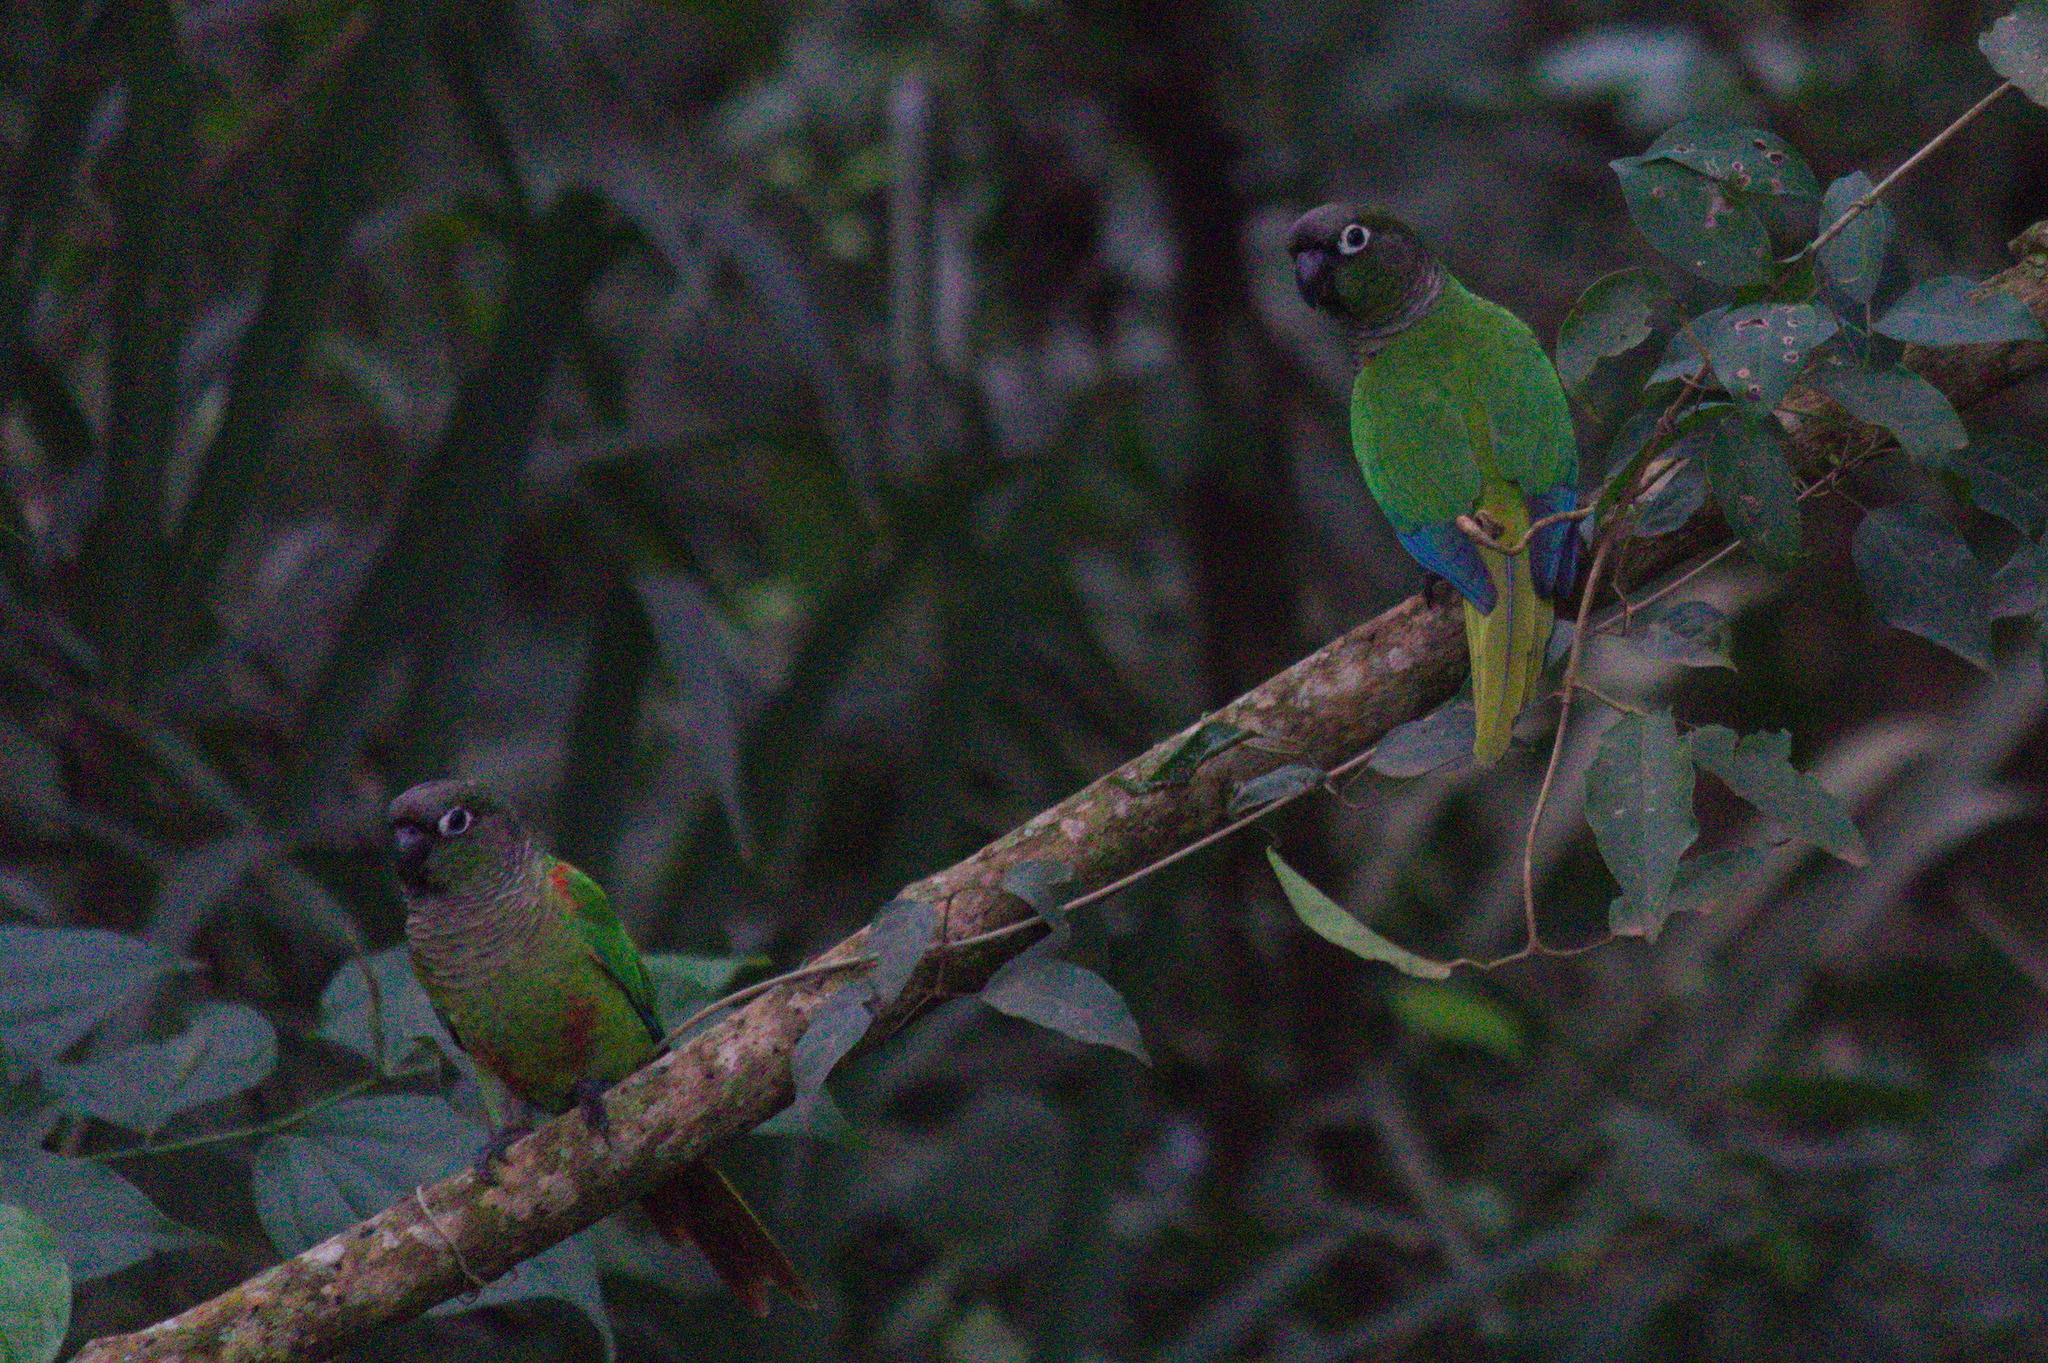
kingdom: Animalia
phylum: Chordata
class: Aves
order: Psittaciformes
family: Psittacidae
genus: Pyrrhura
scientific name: Pyrrhura devillei
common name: Blaze-winged parakeet
